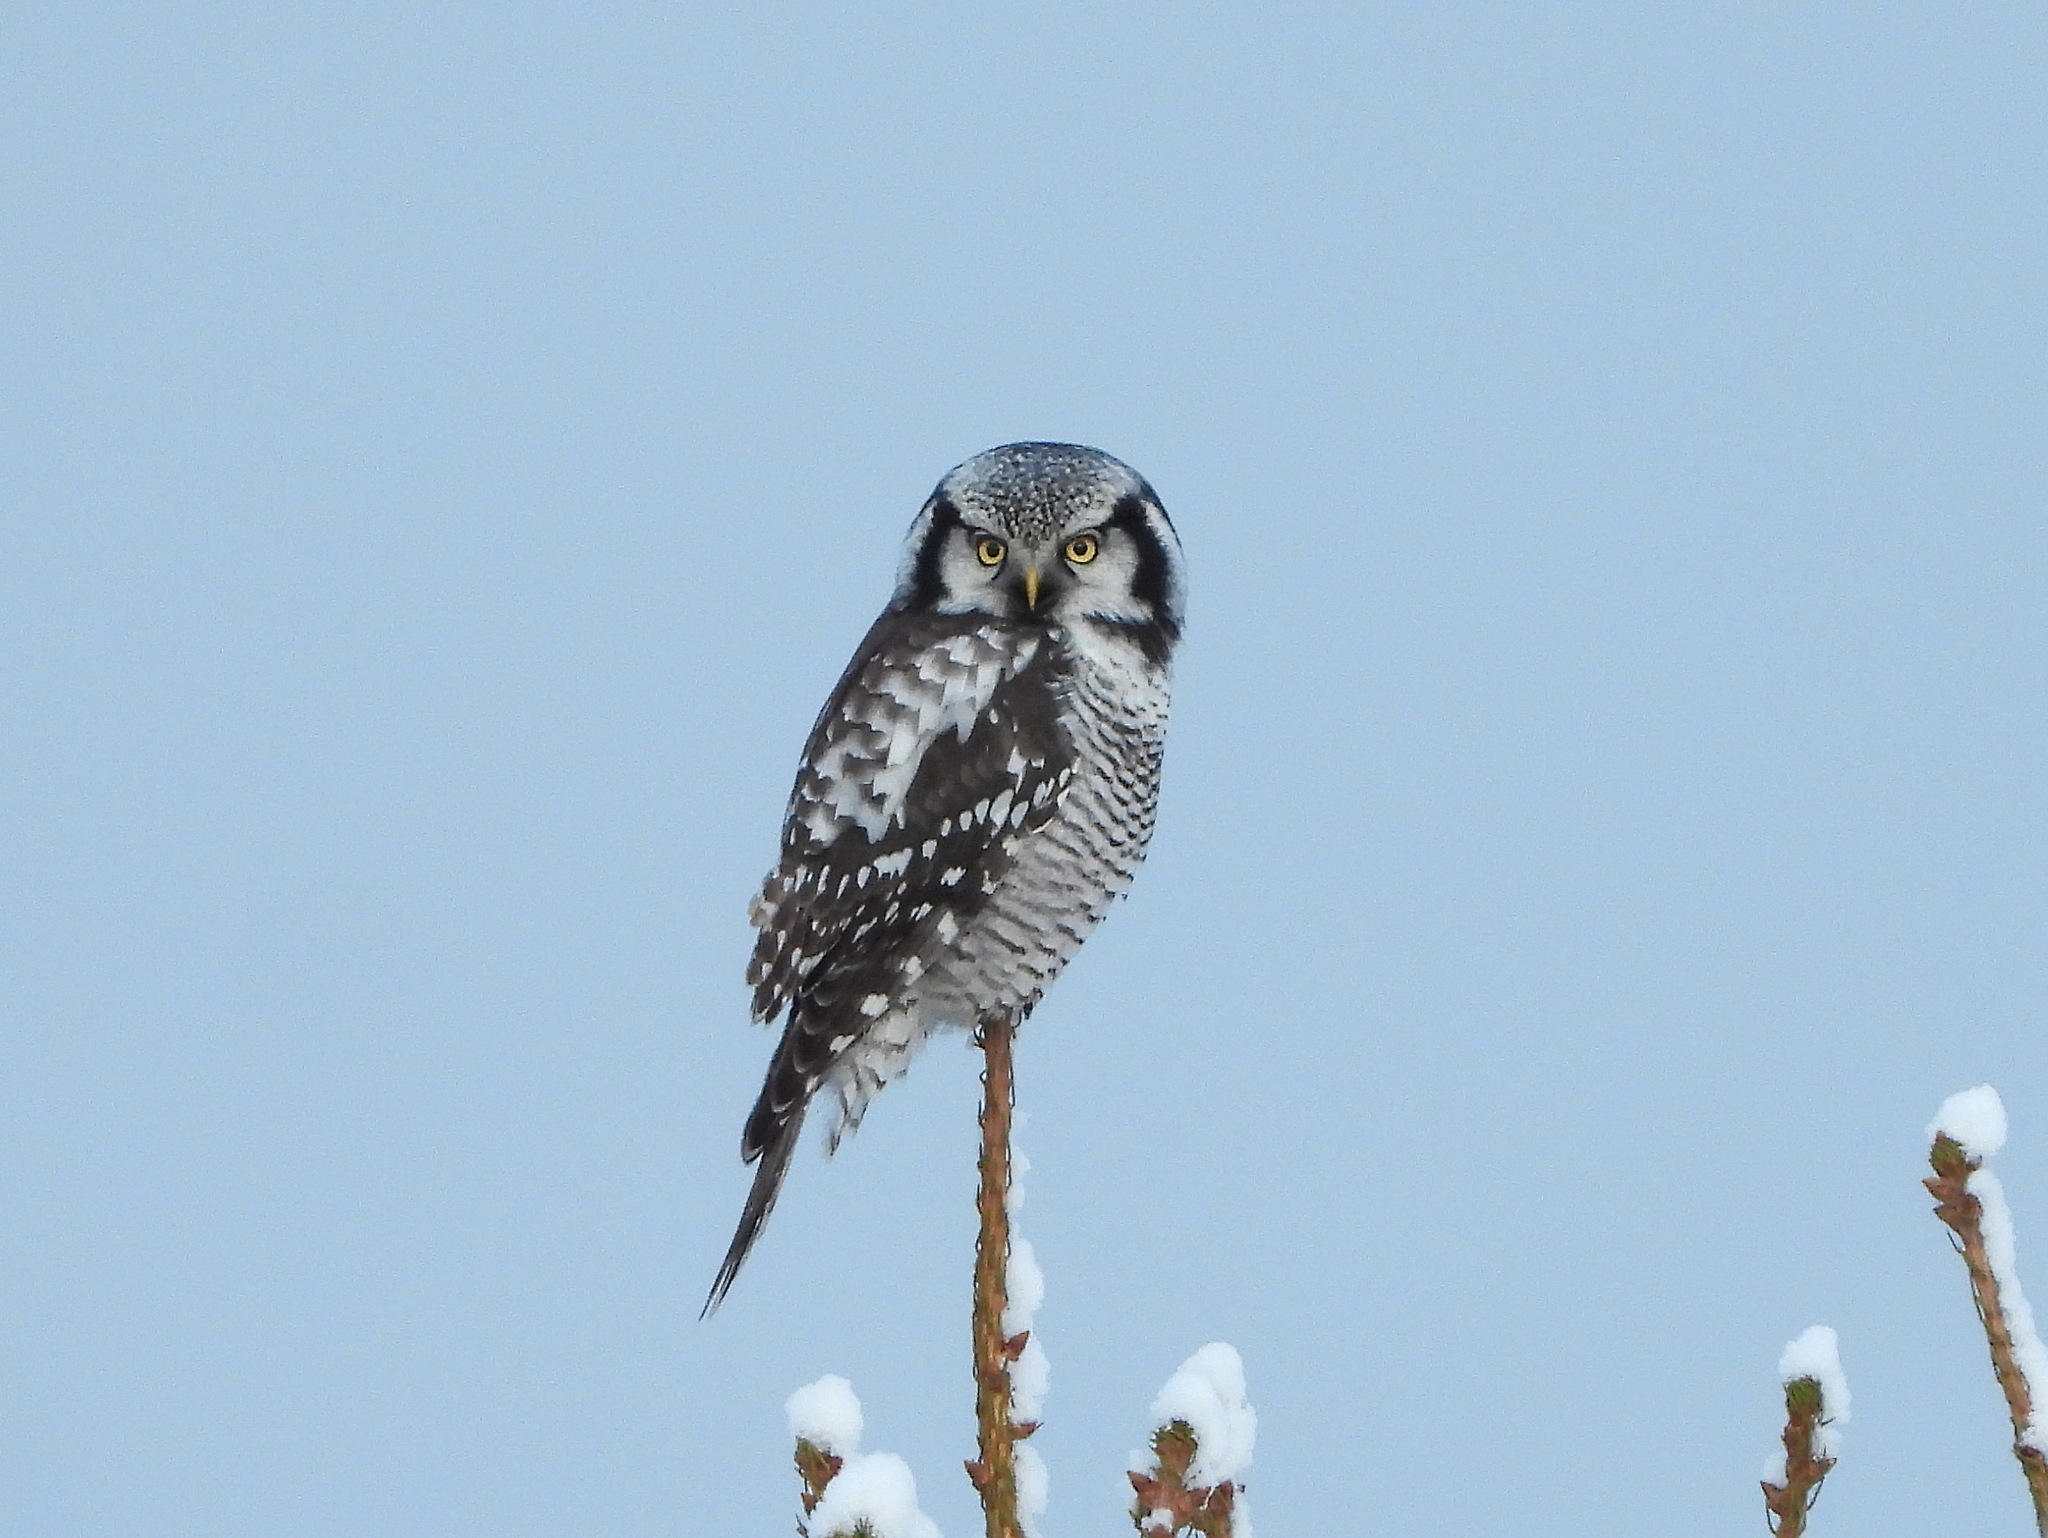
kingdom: Animalia
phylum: Chordata
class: Aves
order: Strigiformes
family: Strigidae
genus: Surnia
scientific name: Surnia ulula
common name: Northern hawk-owl
